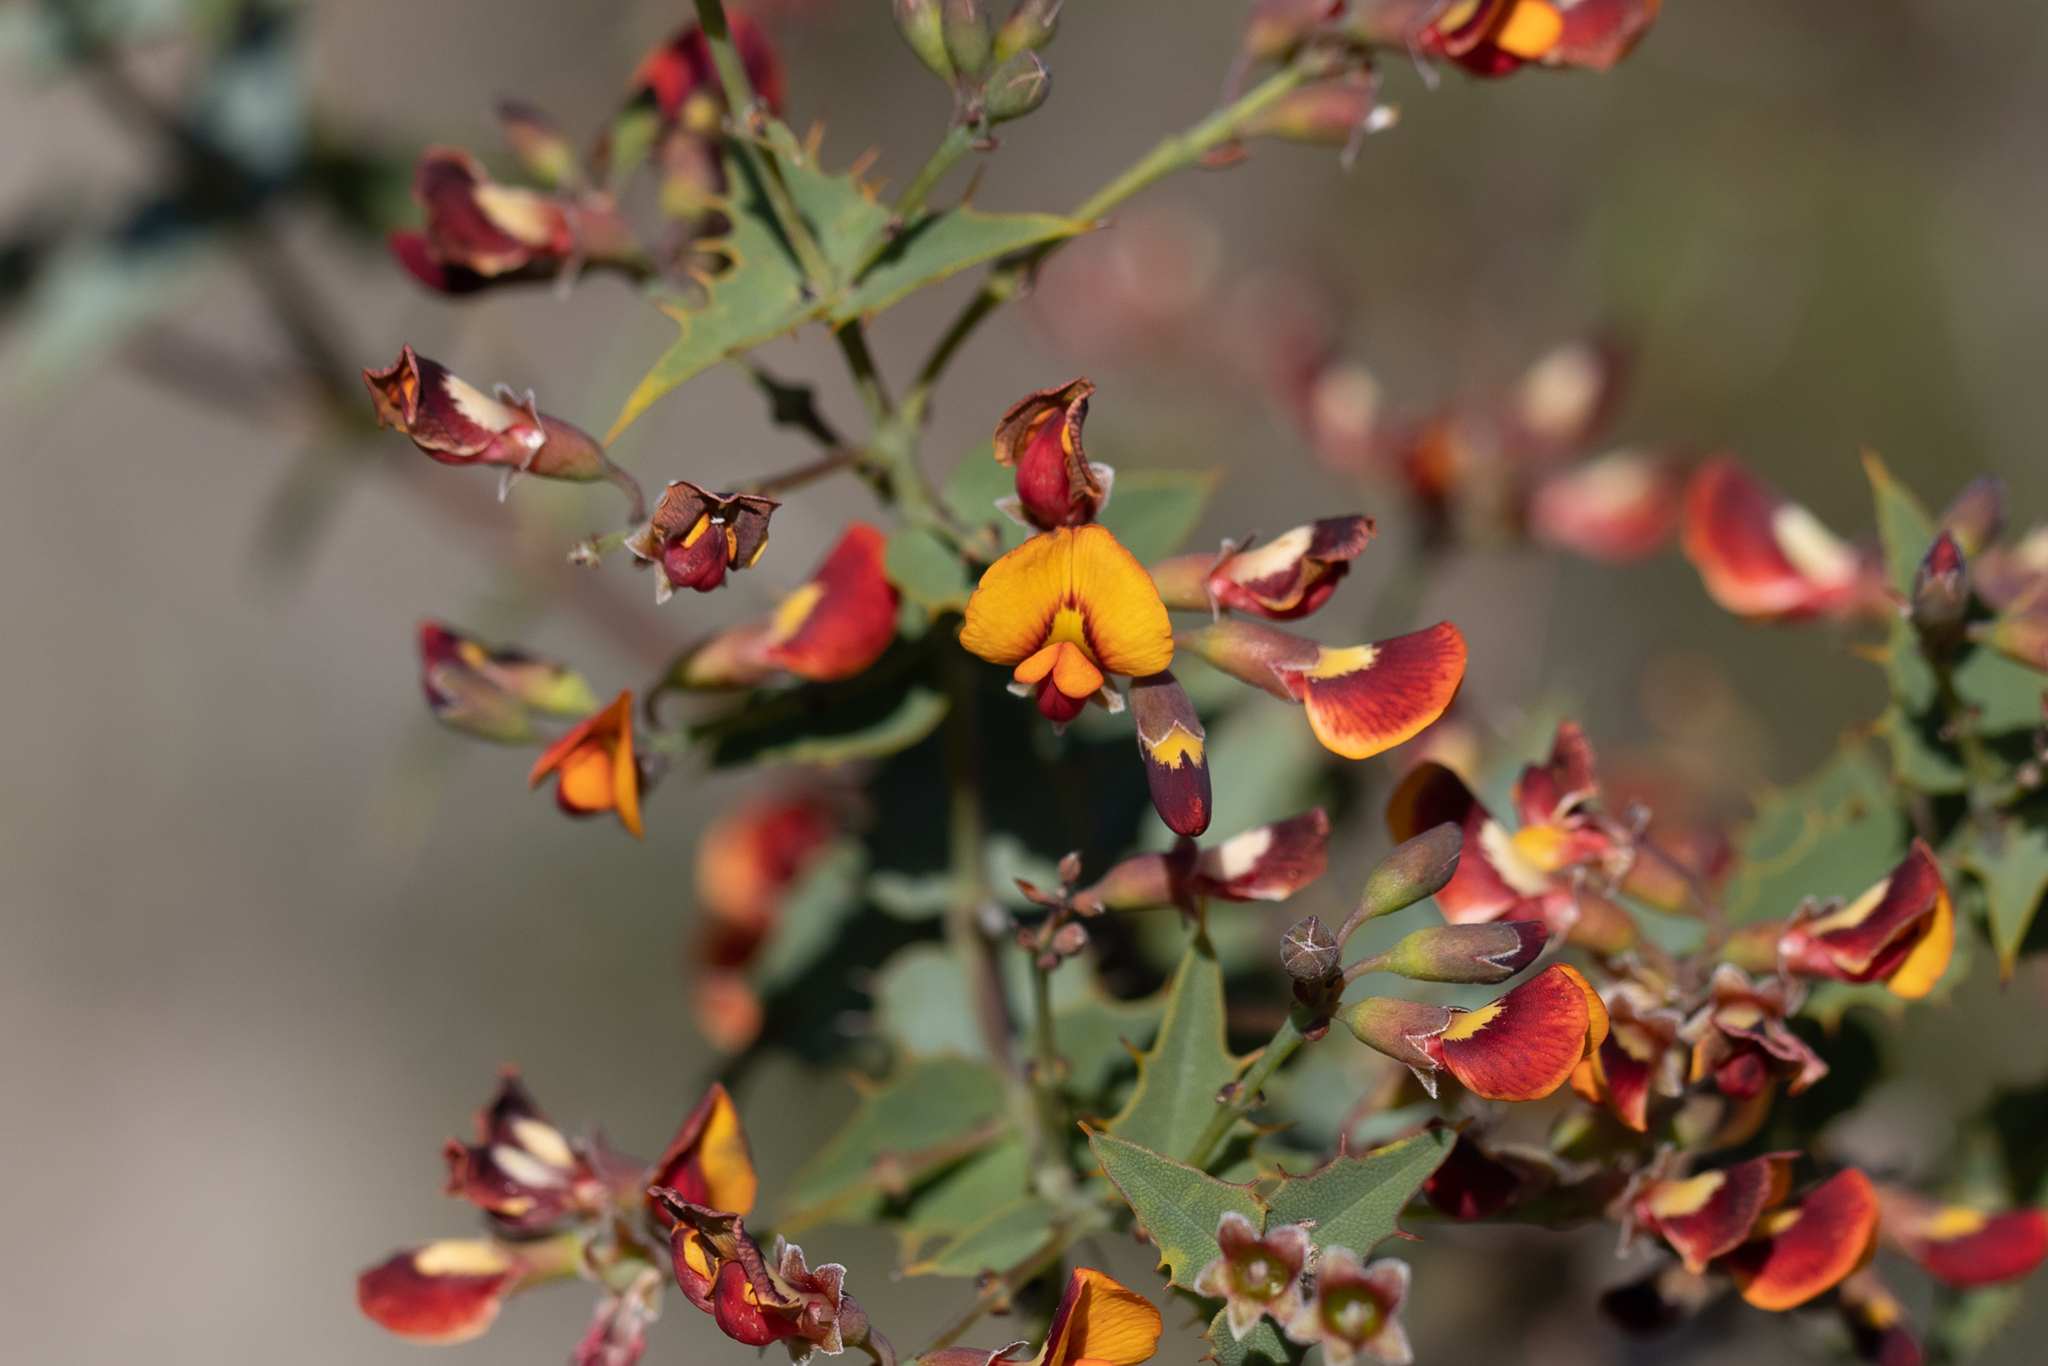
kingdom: Plantae
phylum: Tracheophyta
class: Magnoliopsida
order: Fabales
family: Fabaceae
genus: Gastrolobium
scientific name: Gastrolobium spinosum
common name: Prickly poison
